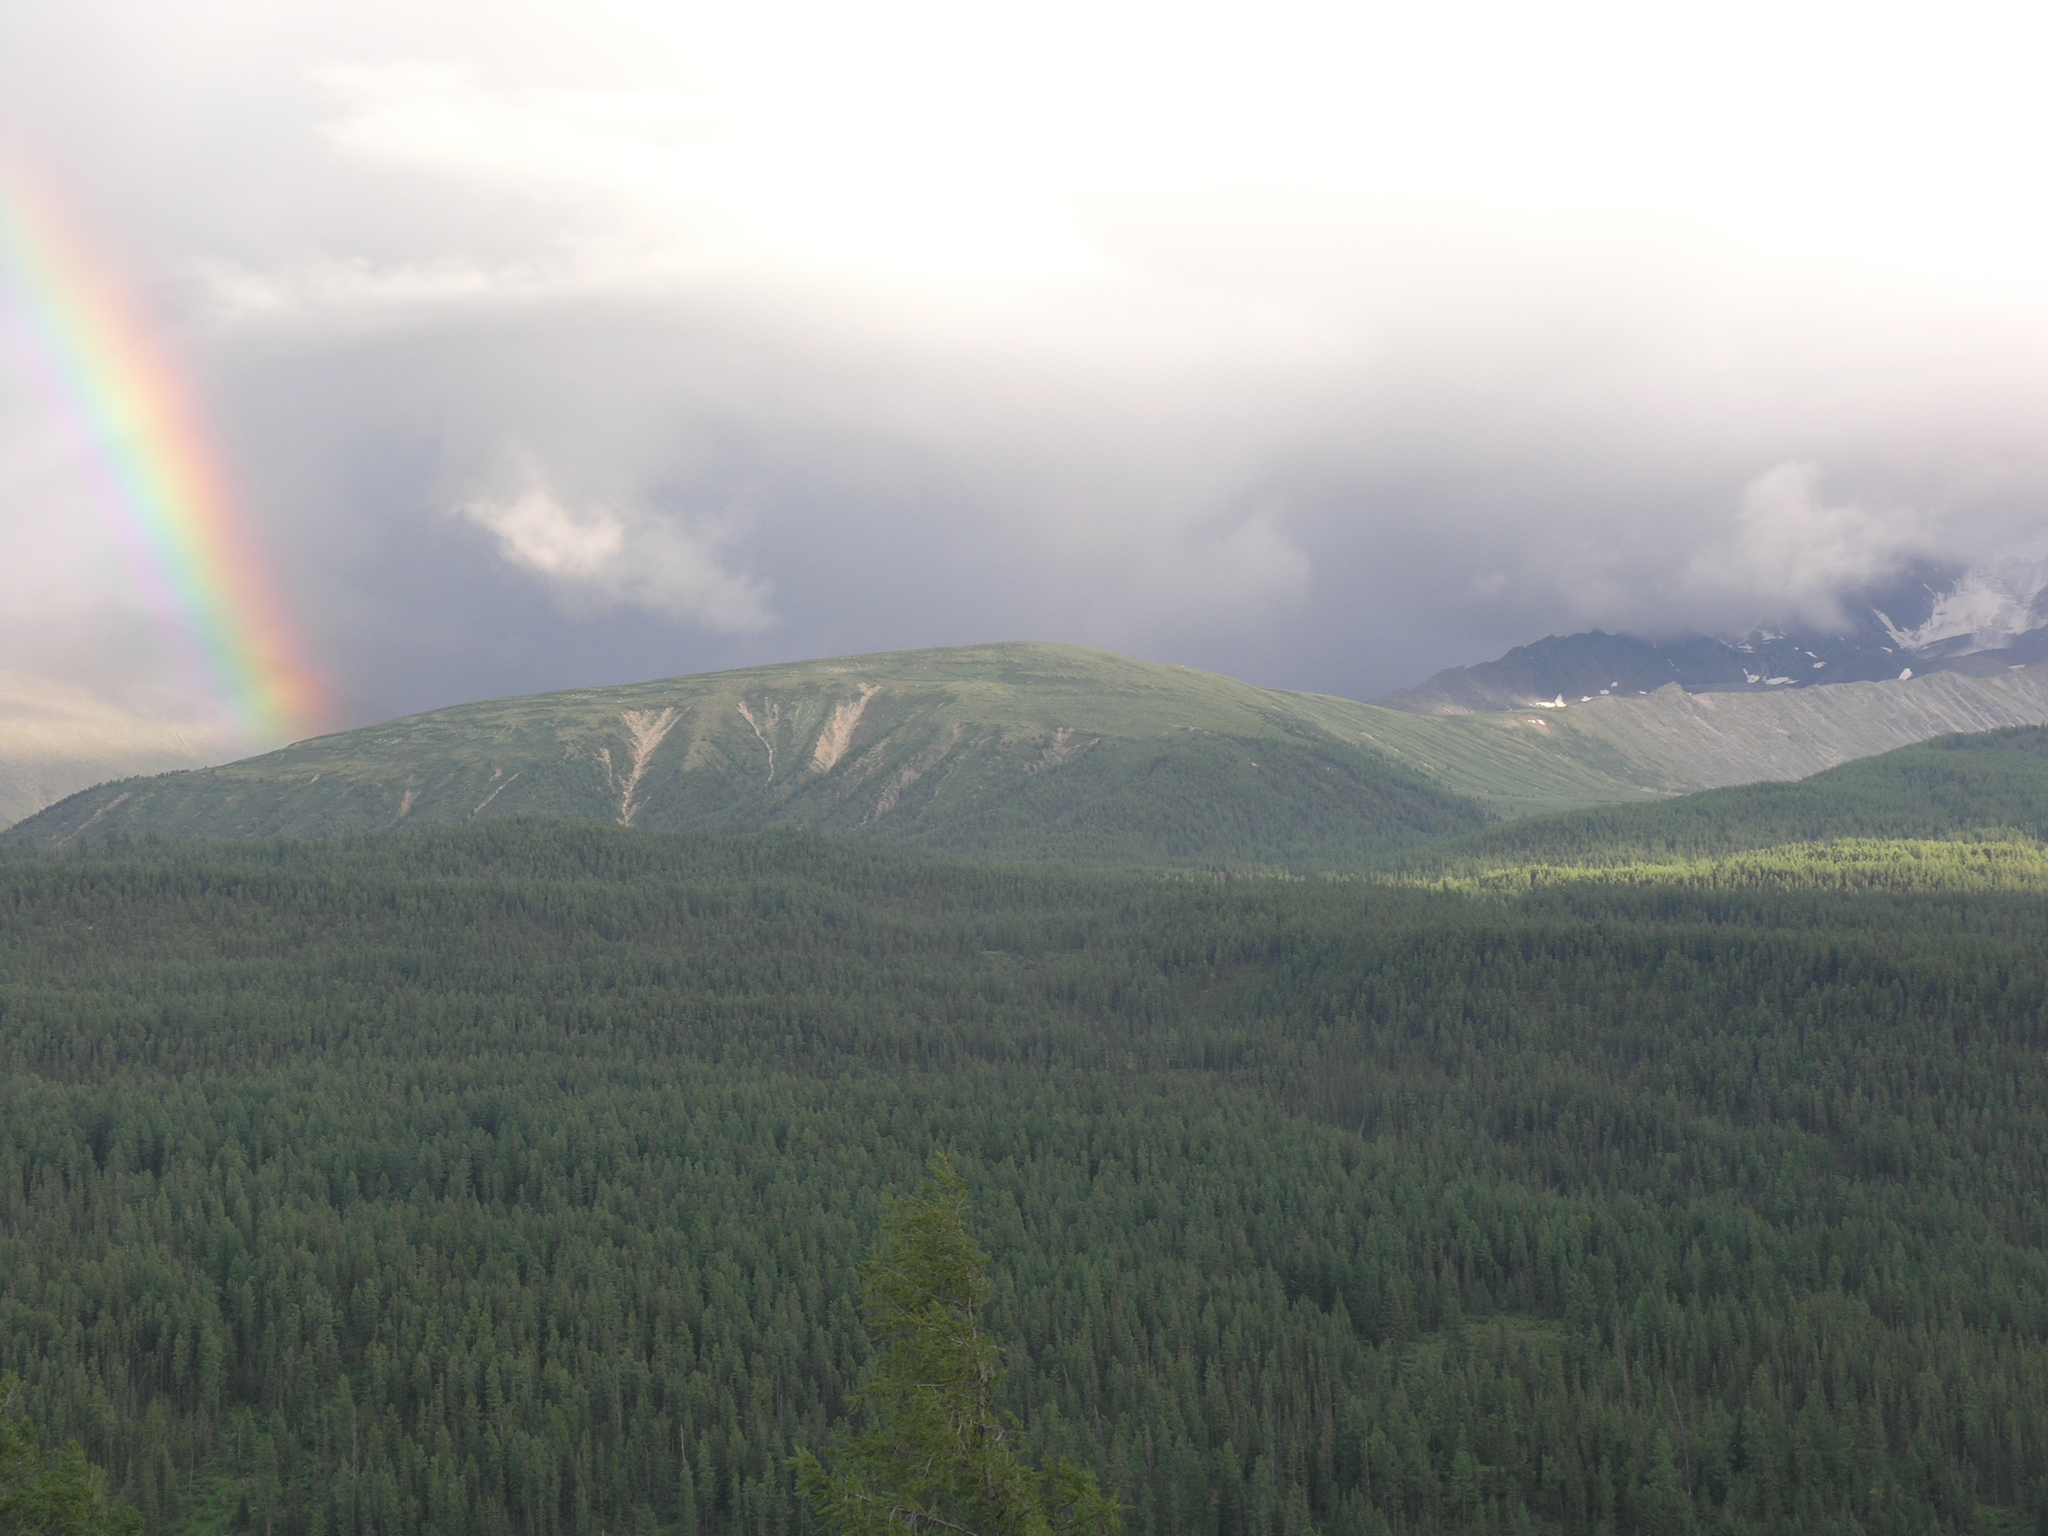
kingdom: Plantae
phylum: Tracheophyta
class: Pinopsida
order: Pinales
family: Pinaceae
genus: Picea
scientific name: Picea obovata
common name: Siberian spruce
